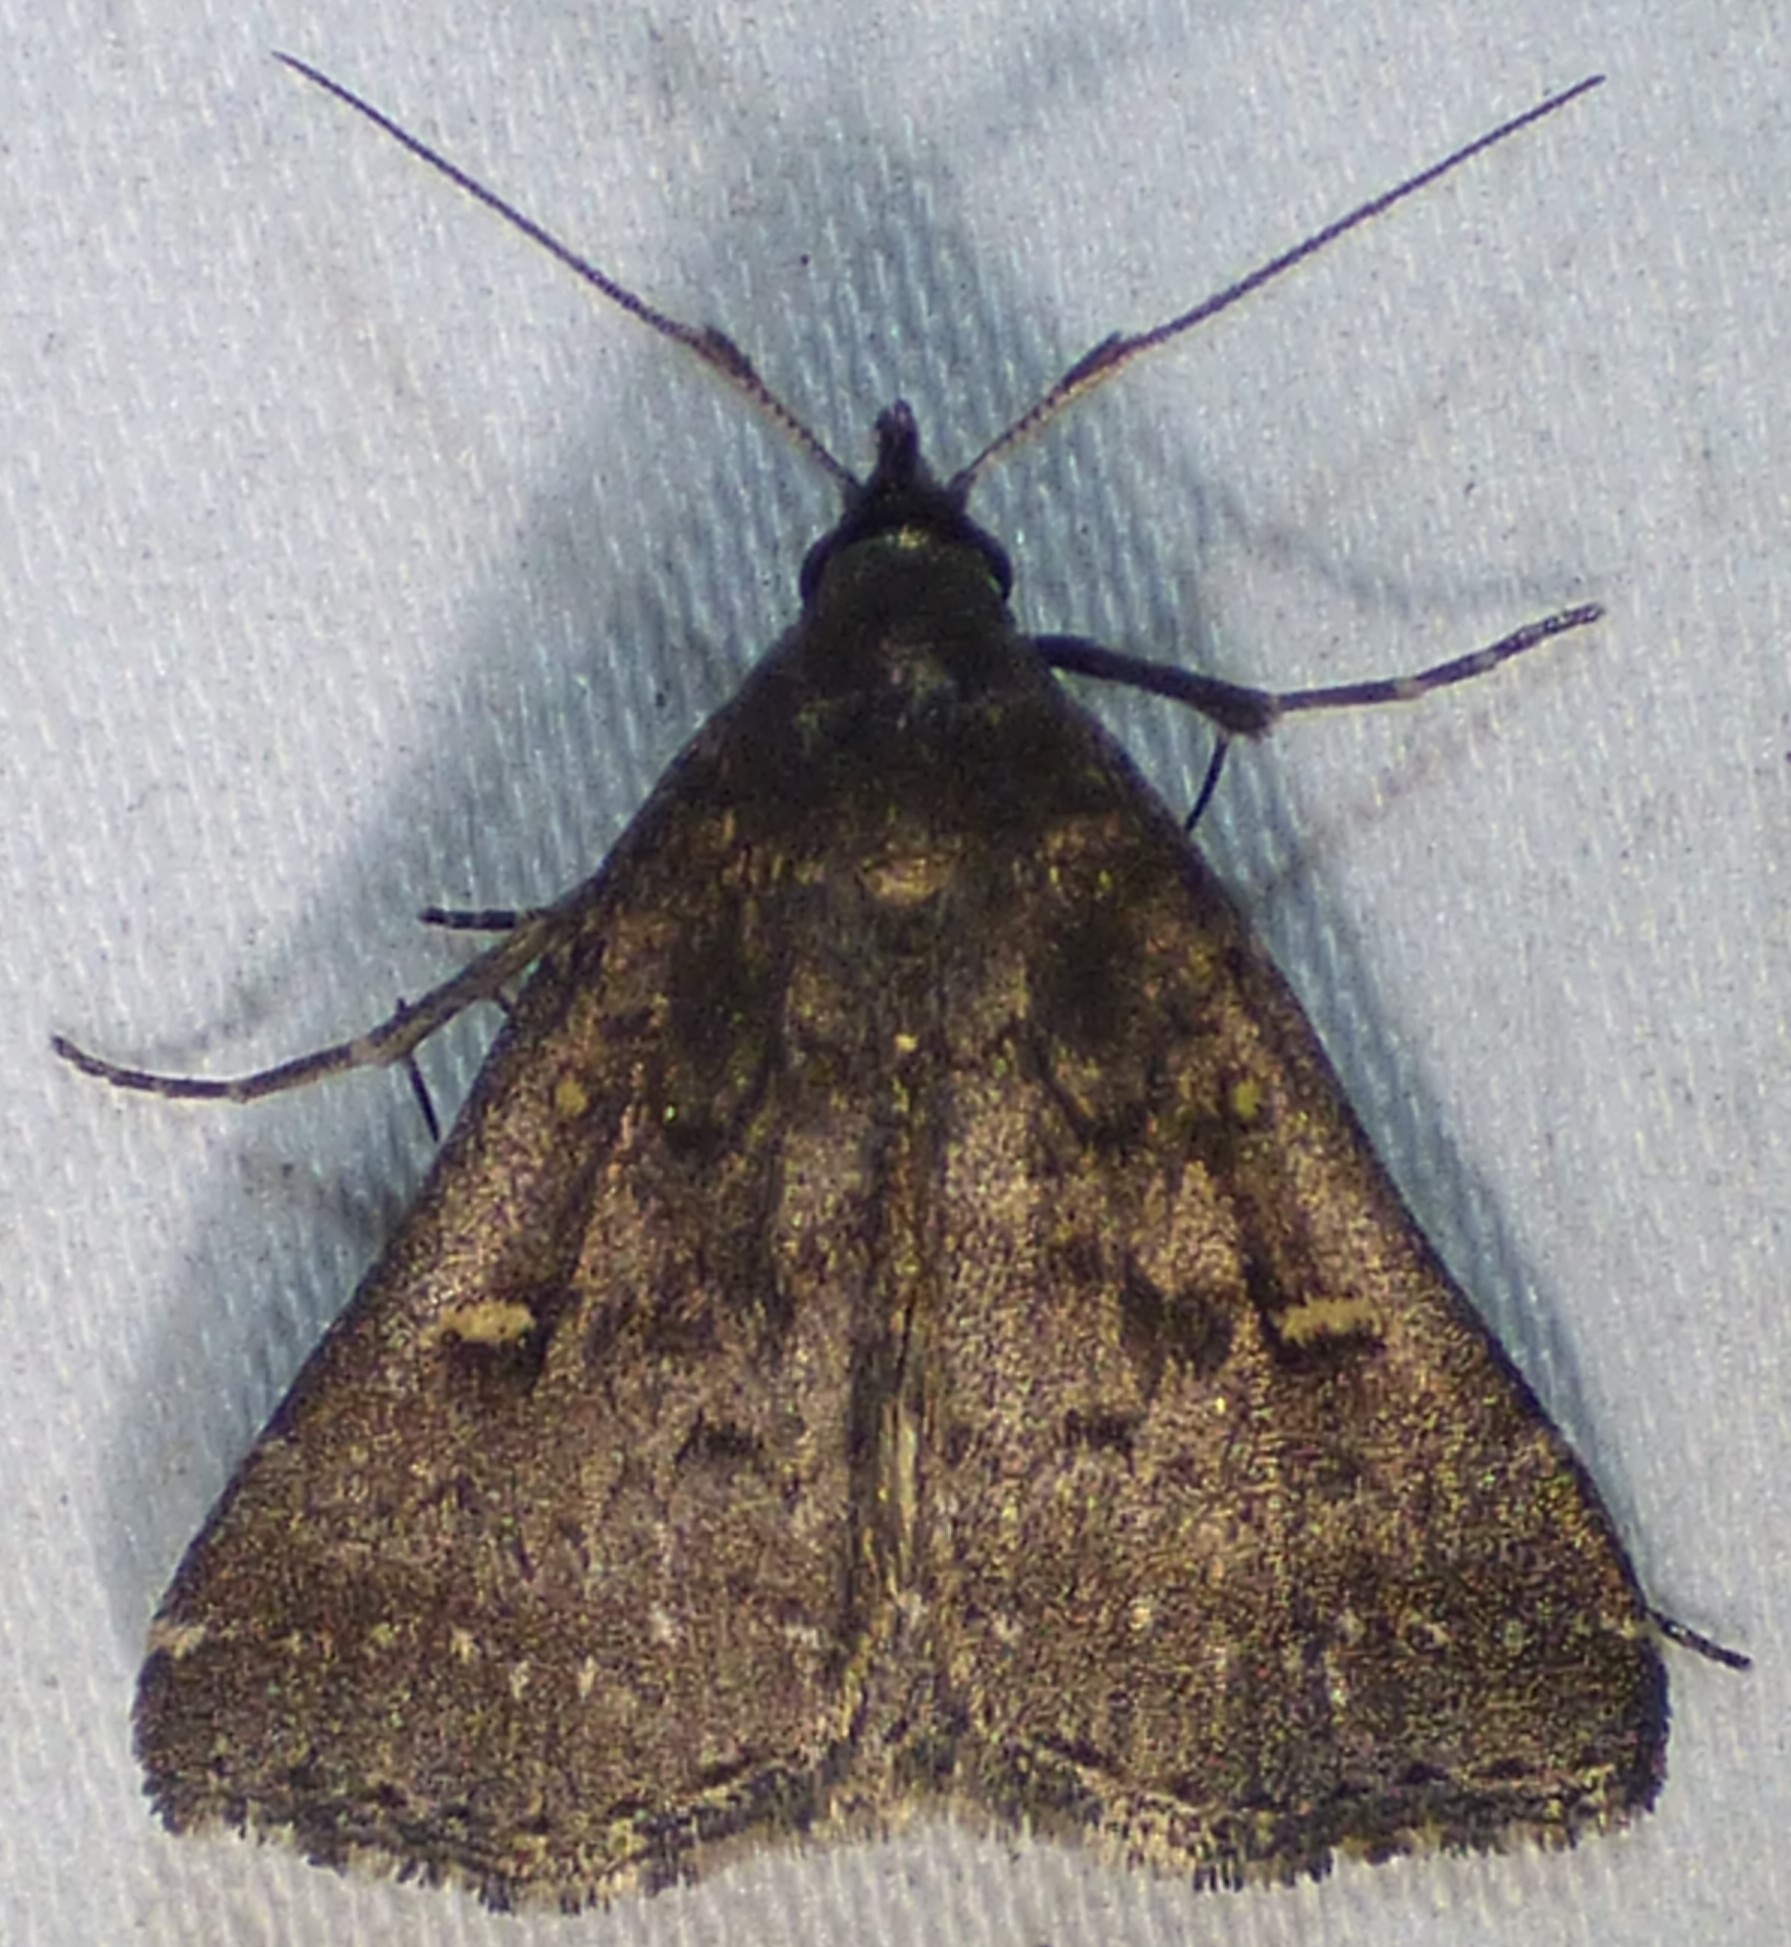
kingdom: Animalia
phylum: Arthropoda
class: Insecta
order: Lepidoptera
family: Erebidae
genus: Tetanolita
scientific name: Tetanolita mynesalis
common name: Smoky tetanolita moth
